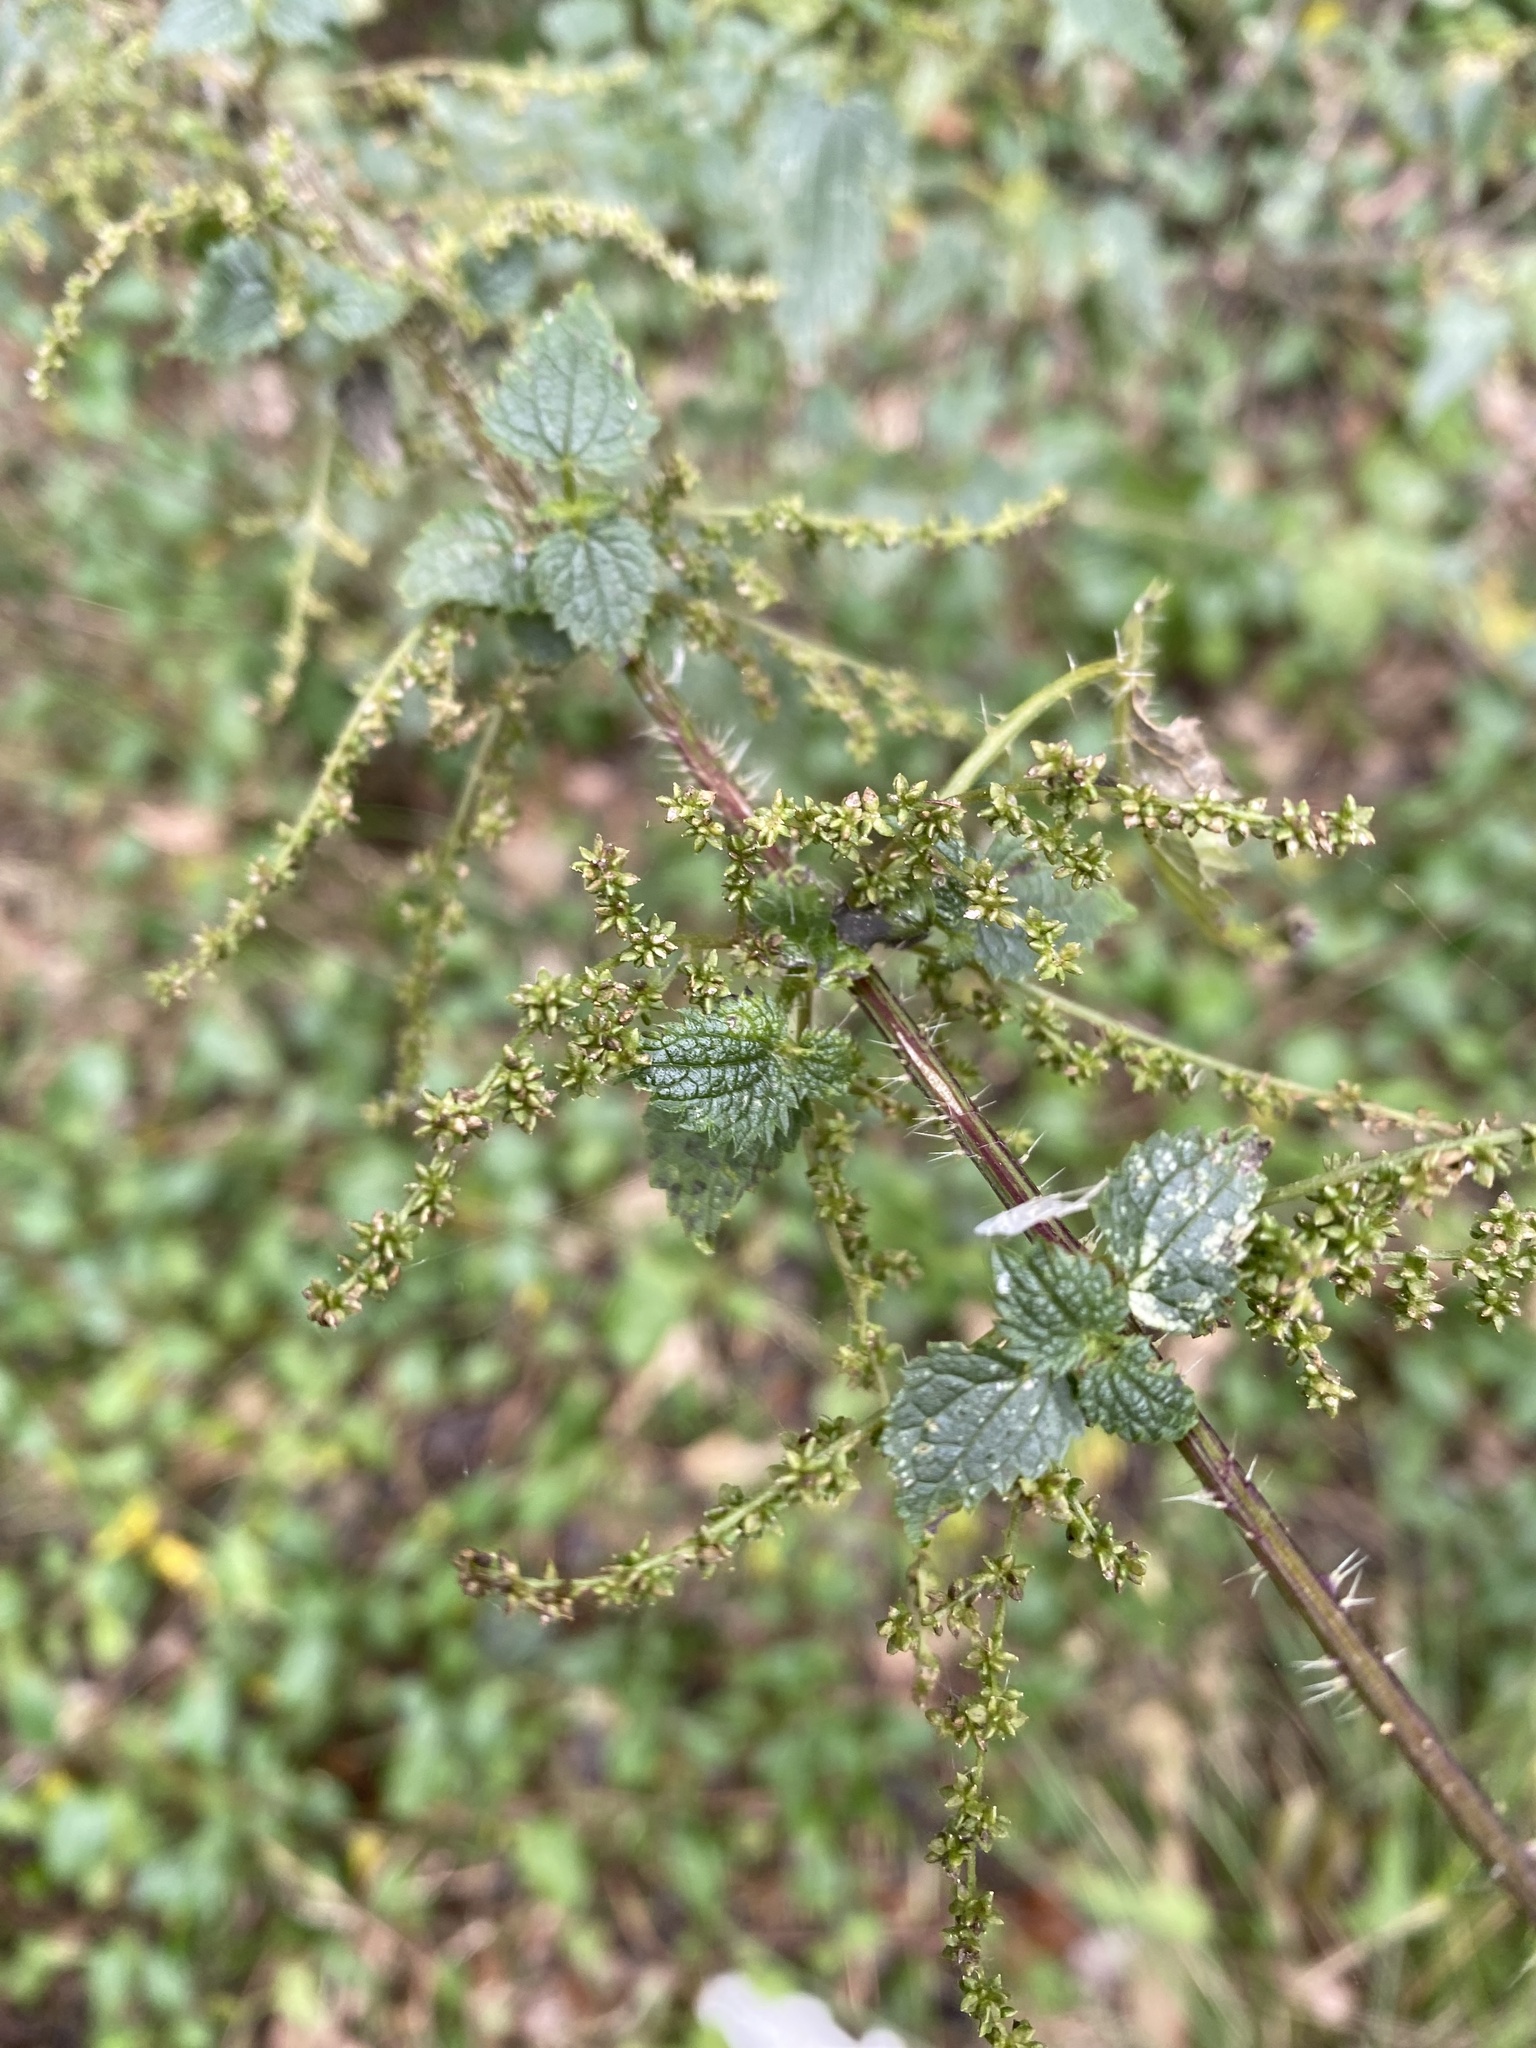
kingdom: Plantae
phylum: Tracheophyta
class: Magnoliopsida
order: Rosales
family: Urticaceae
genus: Urtica
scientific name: Urtica incisa
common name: Scrub nettle
